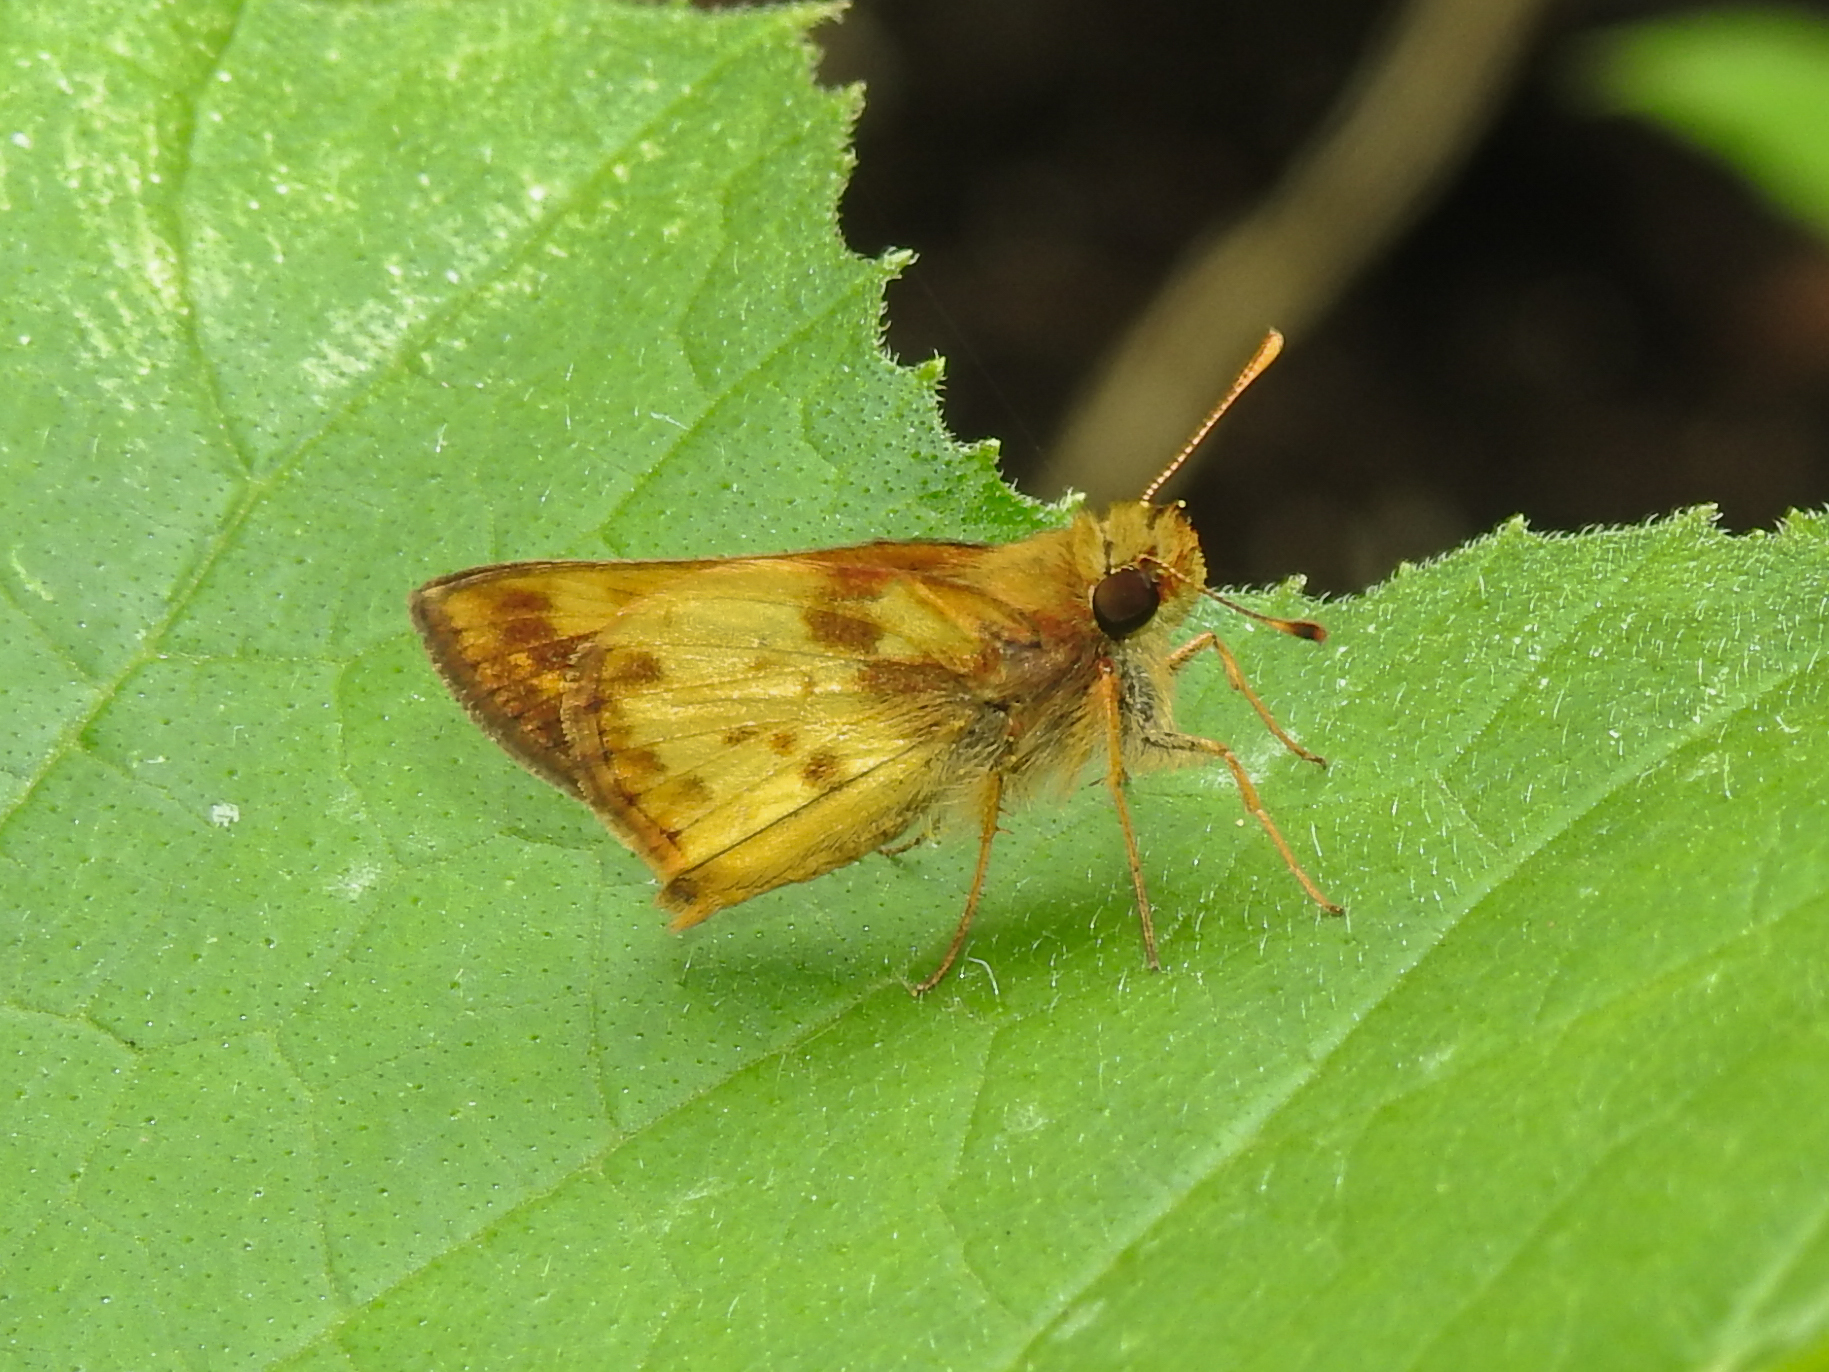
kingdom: Animalia
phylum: Arthropoda
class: Insecta
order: Lepidoptera
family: Hesperiidae
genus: Lon
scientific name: Lon zabulon
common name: Zabulon skipper
